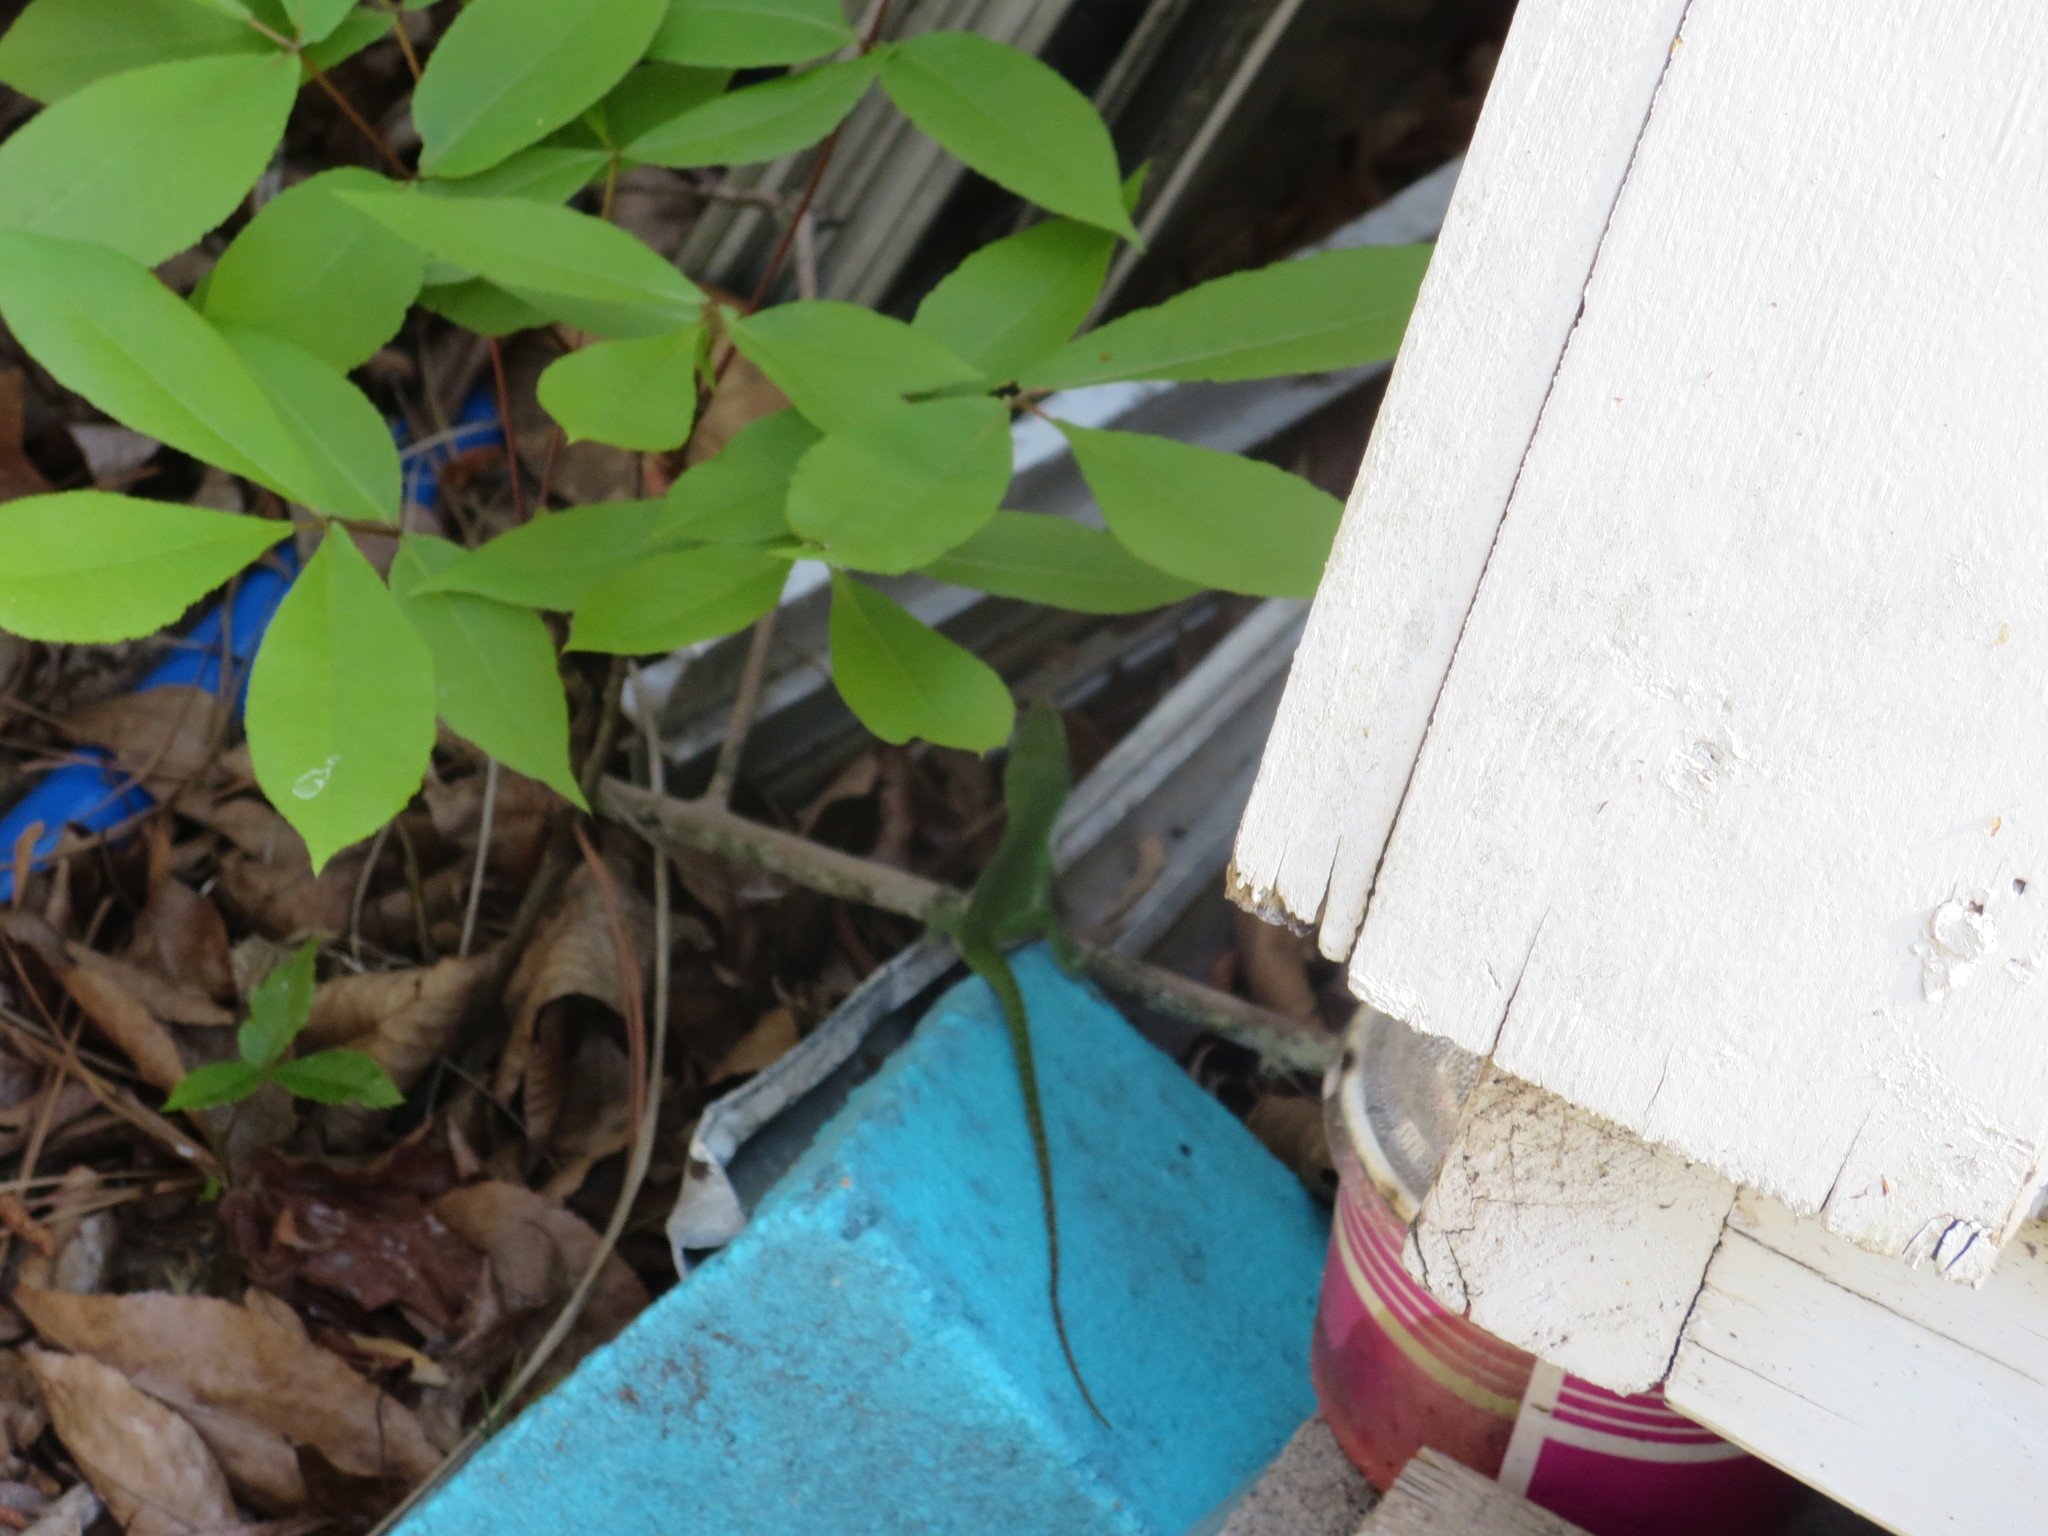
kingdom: Animalia
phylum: Chordata
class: Squamata
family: Dactyloidae
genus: Anolis
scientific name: Anolis carolinensis
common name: Green anole
